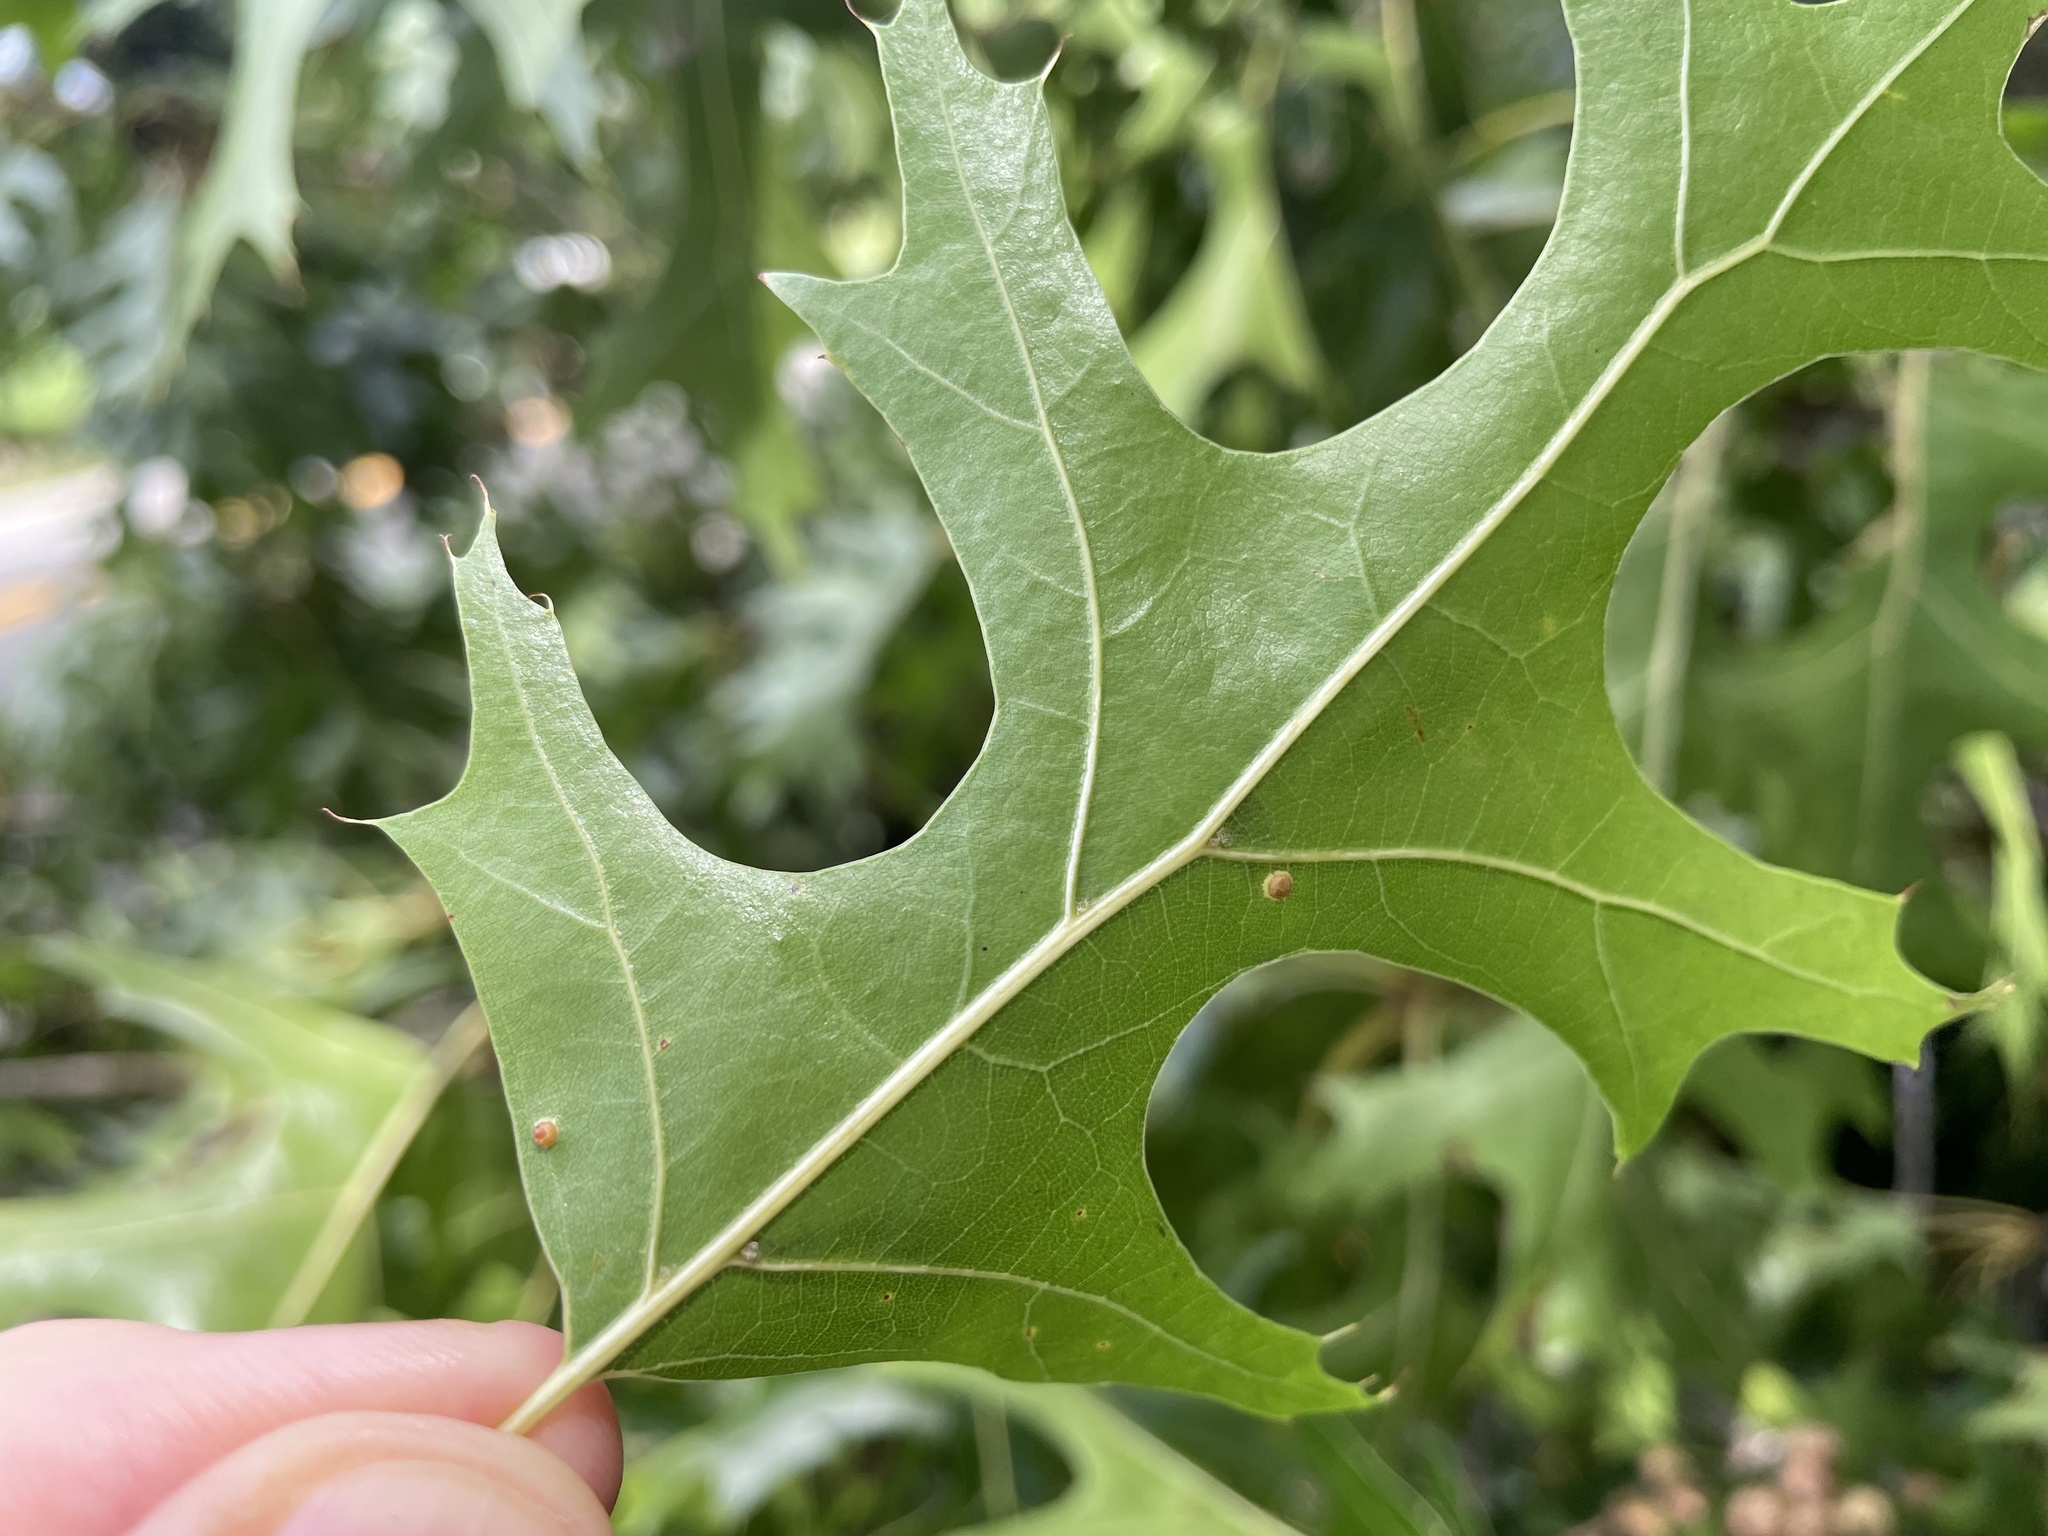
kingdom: Plantae
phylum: Tracheophyta
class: Magnoliopsida
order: Fagales
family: Fagaceae
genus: Quercus
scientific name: Quercus coccinea
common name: Scarlet oak
